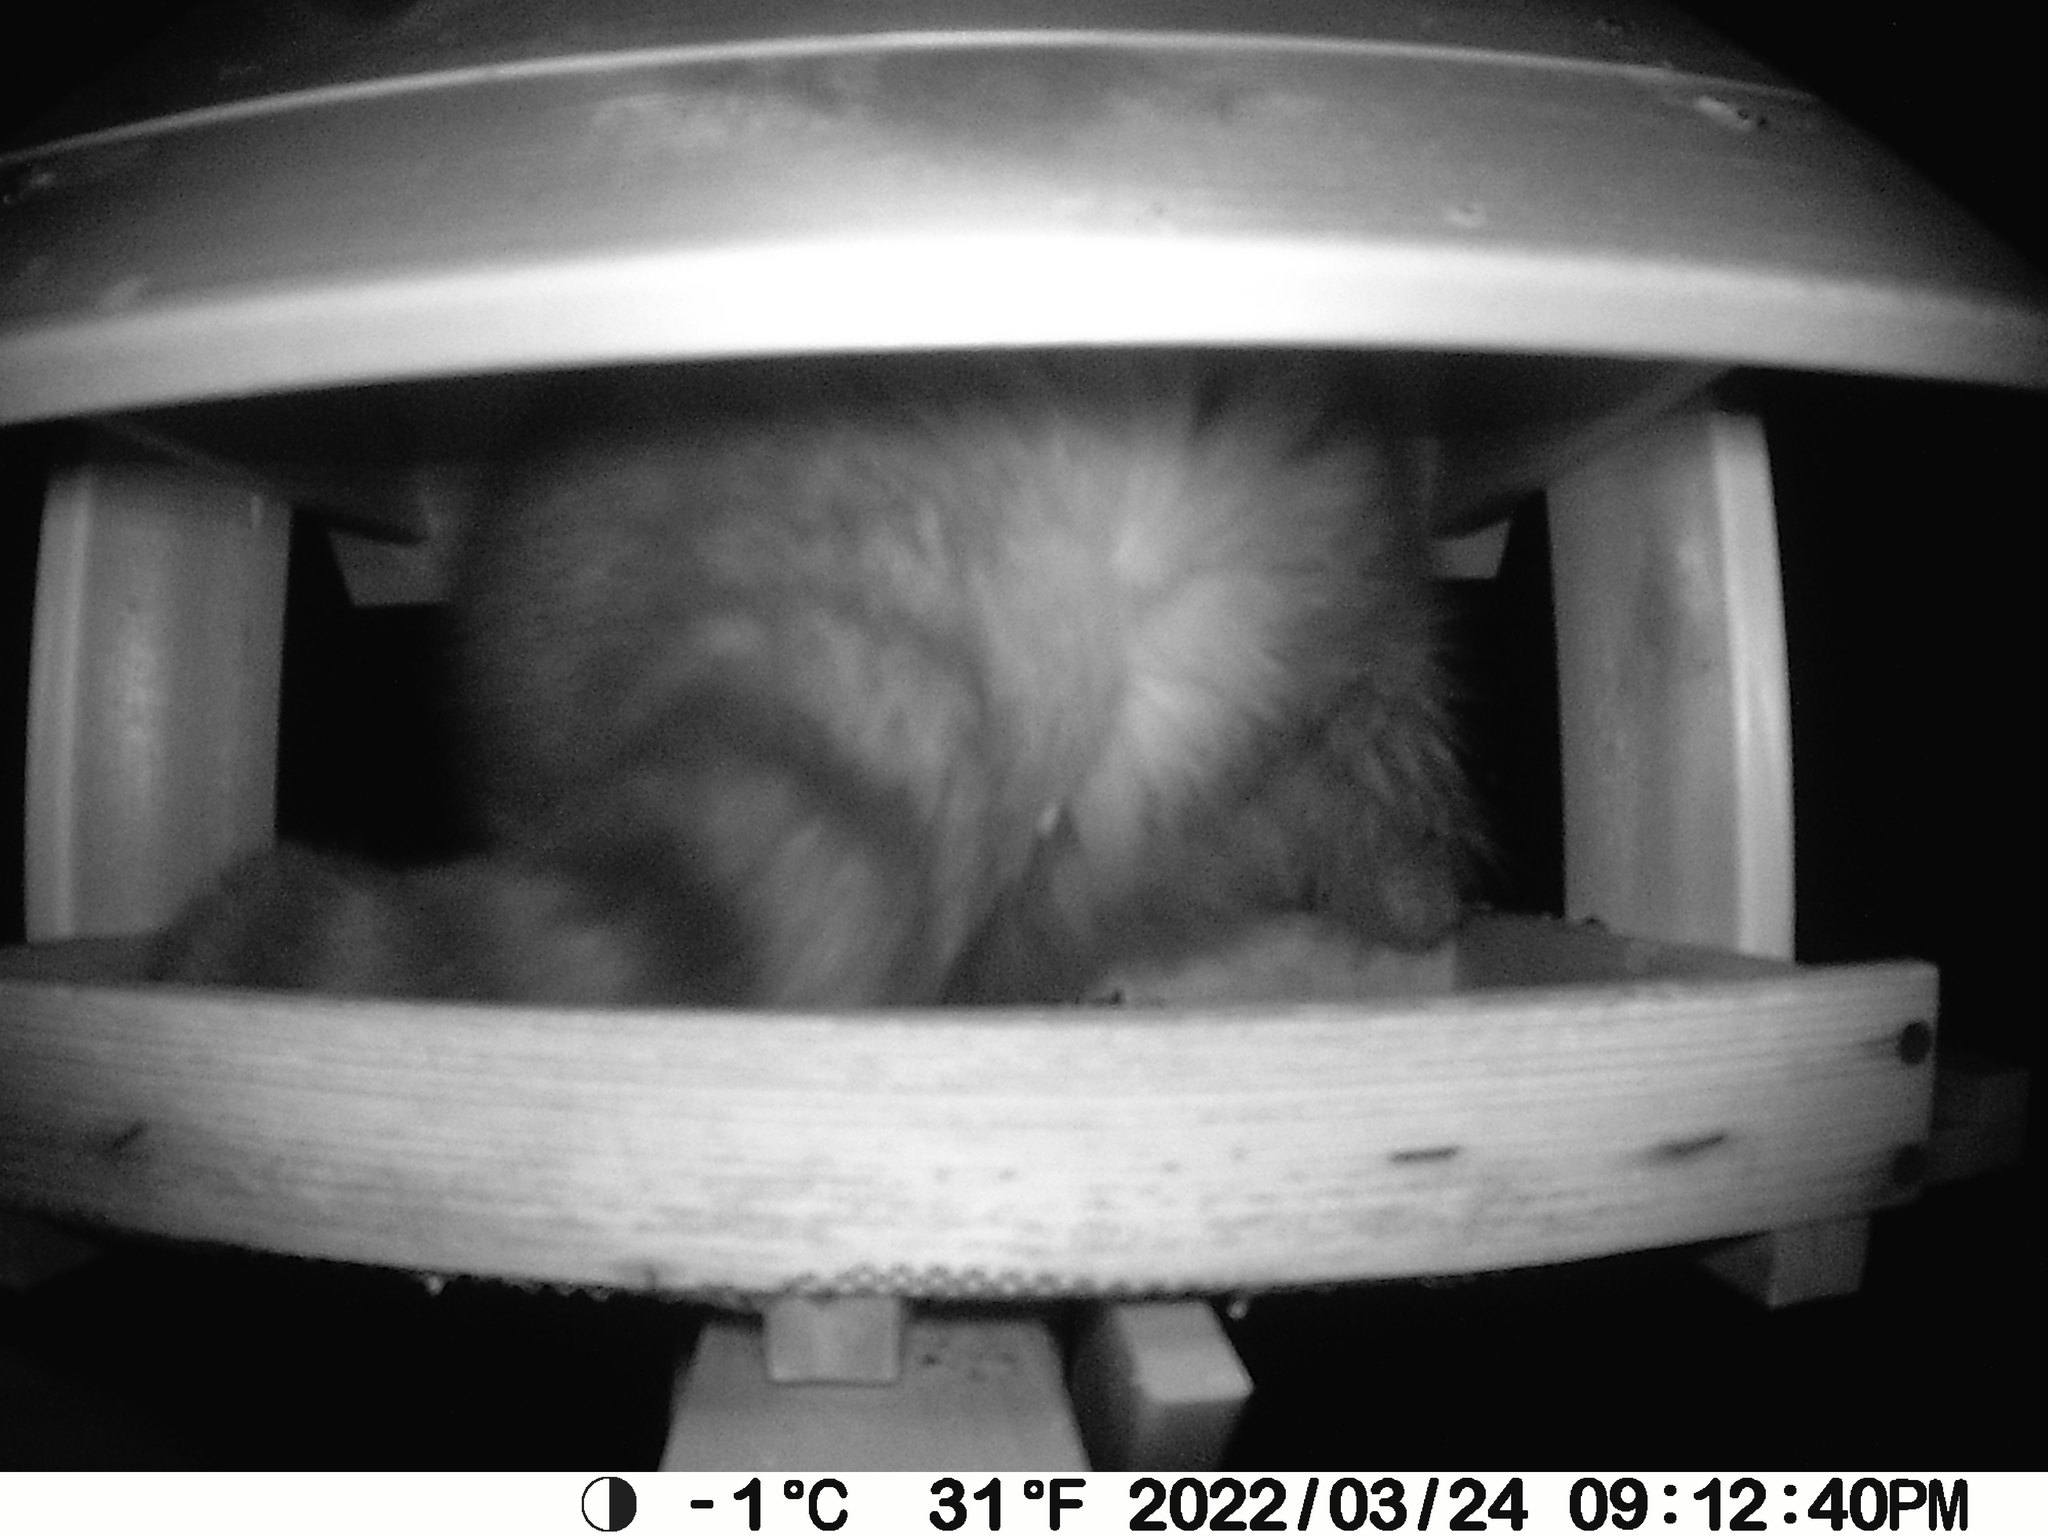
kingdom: Animalia
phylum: Chordata
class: Mammalia
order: Carnivora
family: Procyonidae
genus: Procyon
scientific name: Procyon lotor
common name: Raccoon
